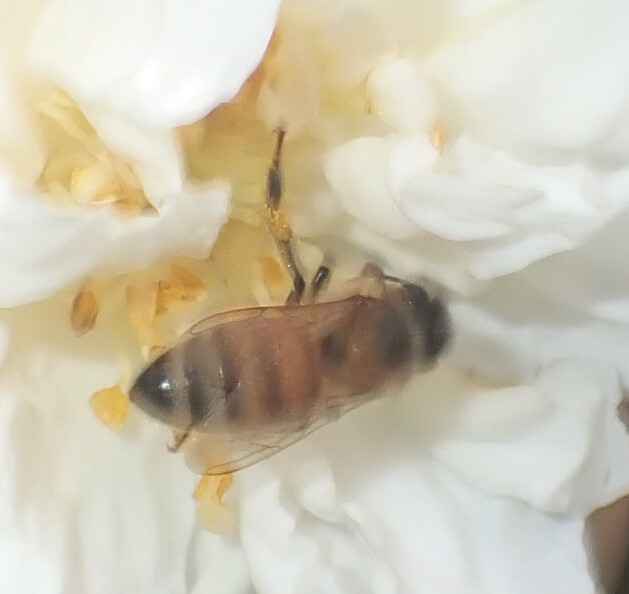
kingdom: Animalia
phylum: Arthropoda
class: Insecta
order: Hymenoptera
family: Apidae
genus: Apis
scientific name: Apis mellifera
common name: Honey bee
